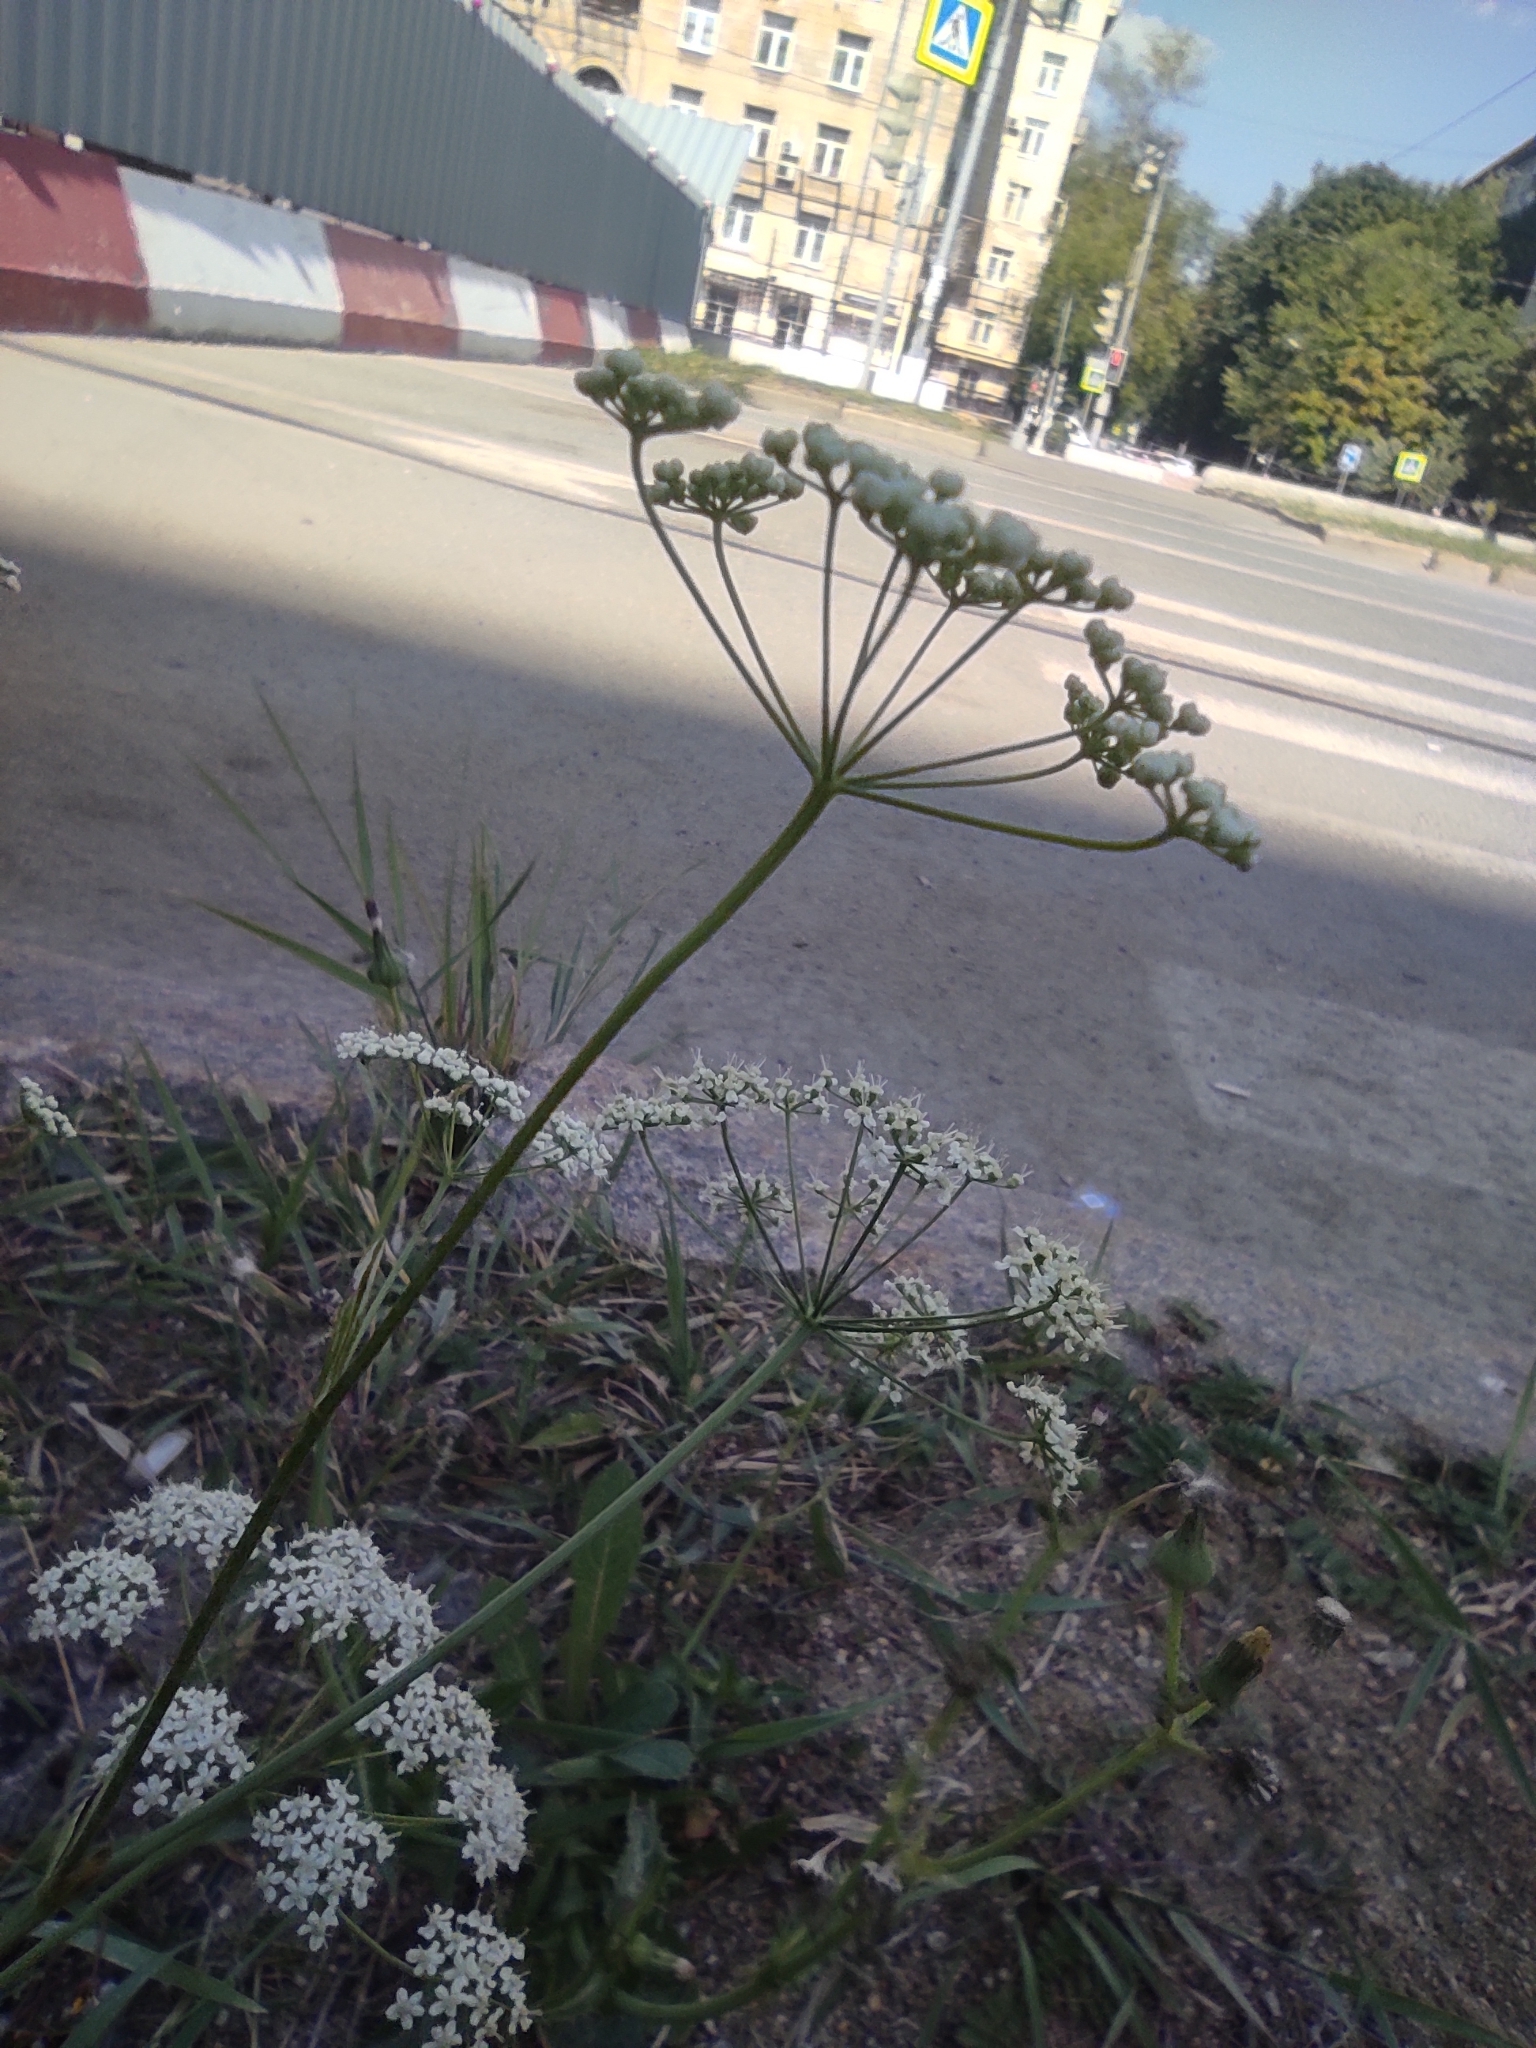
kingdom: Plantae
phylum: Tracheophyta
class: Magnoliopsida
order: Apiales
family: Apiaceae
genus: Pimpinella
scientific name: Pimpinella saxifraga
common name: Burnet-saxifrage
